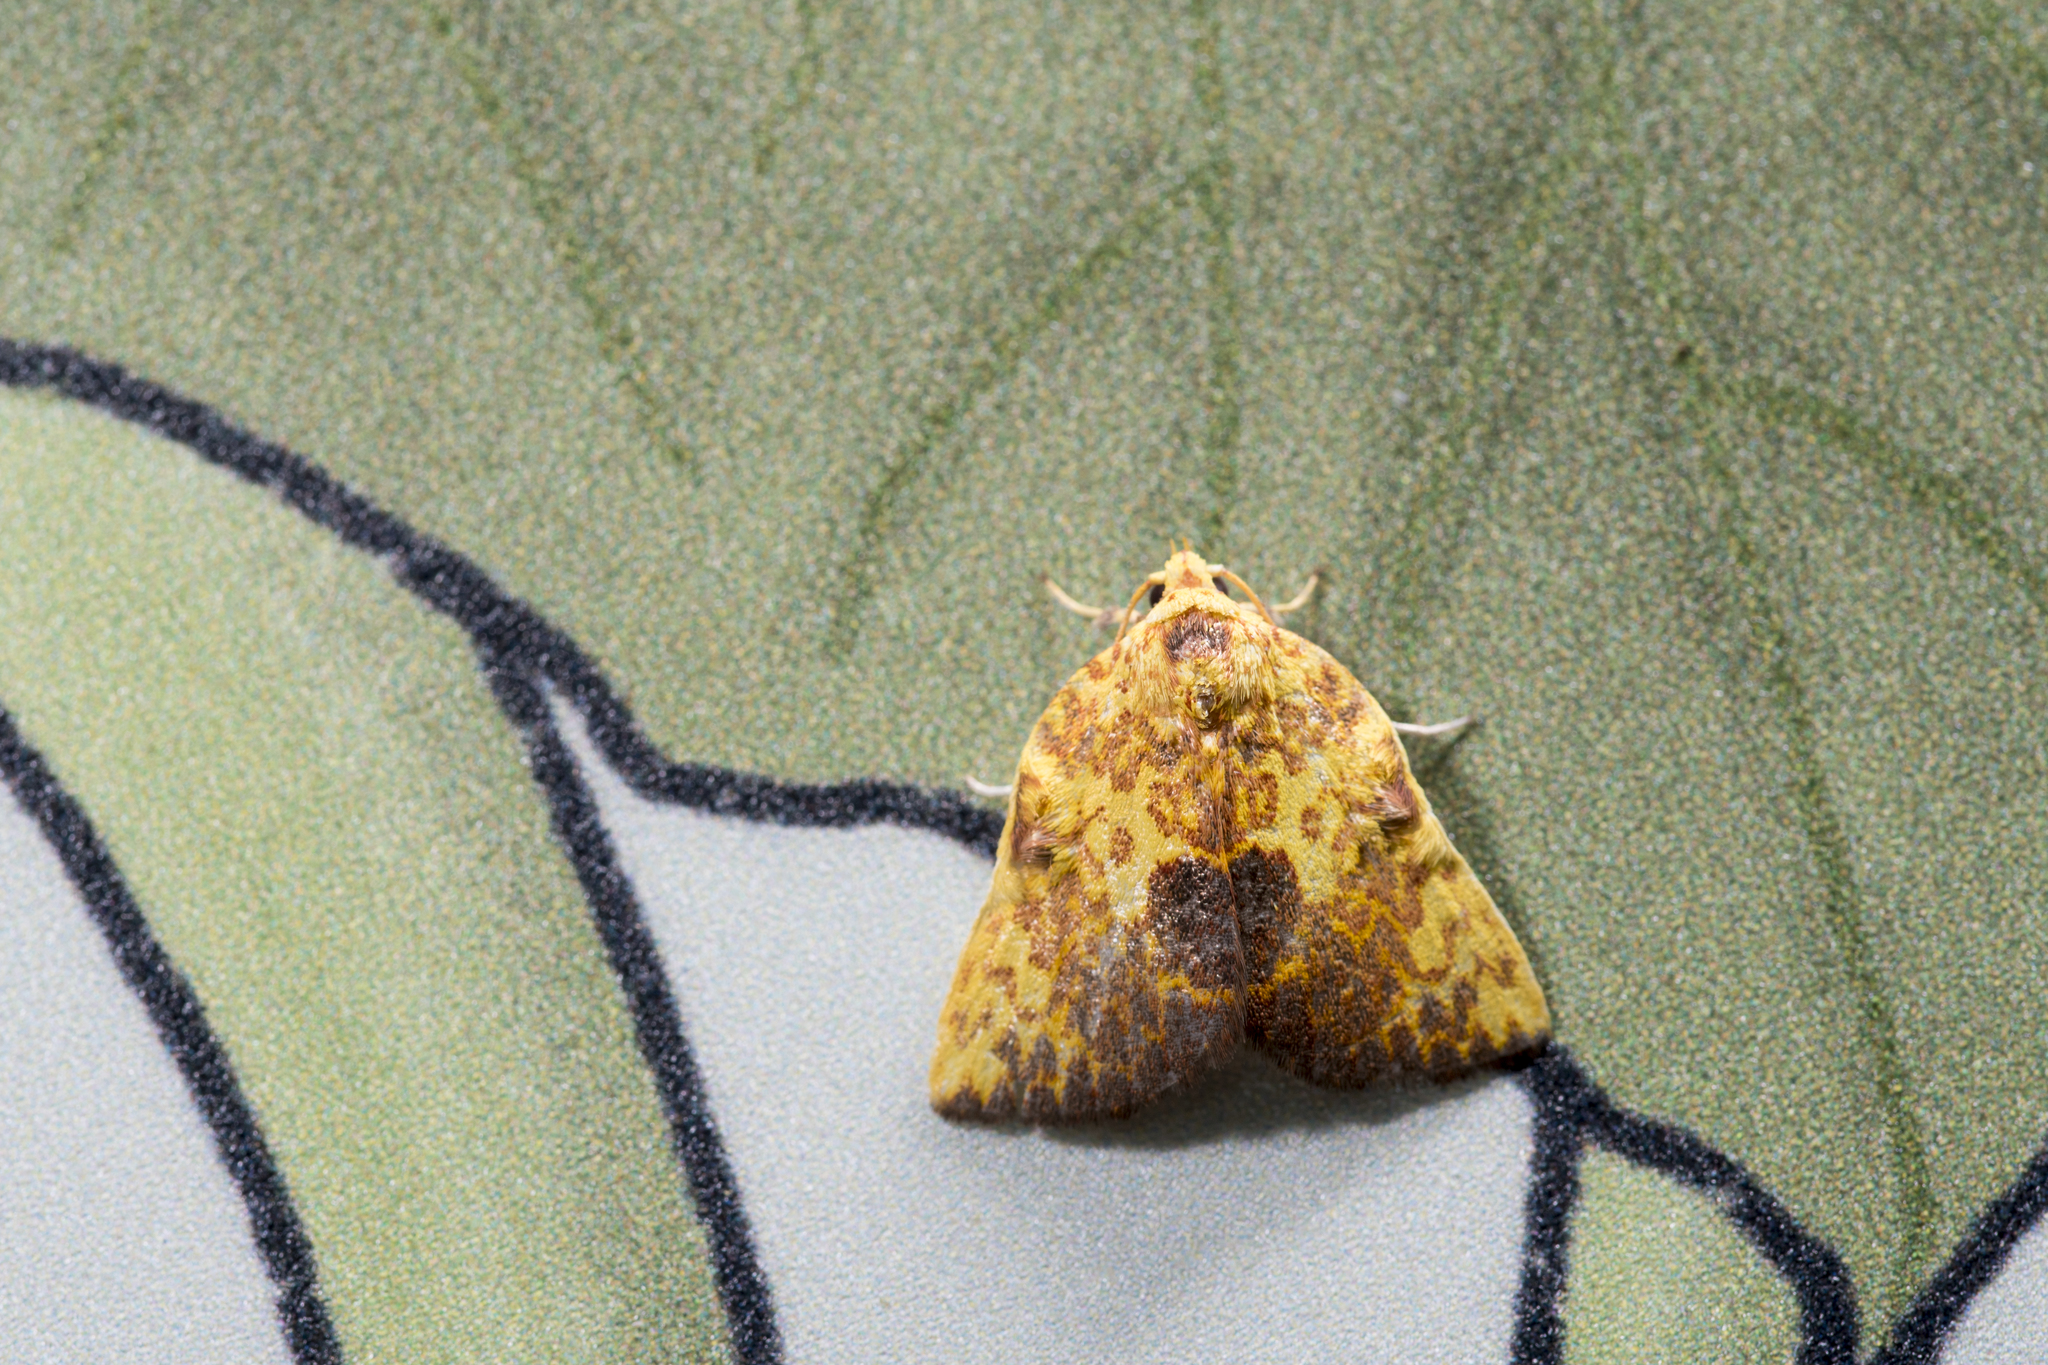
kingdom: Animalia
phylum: Arthropoda
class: Insecta
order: Lepidoptera
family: Nolidae
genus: Siglophora
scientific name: Siglophora ferreilutea
